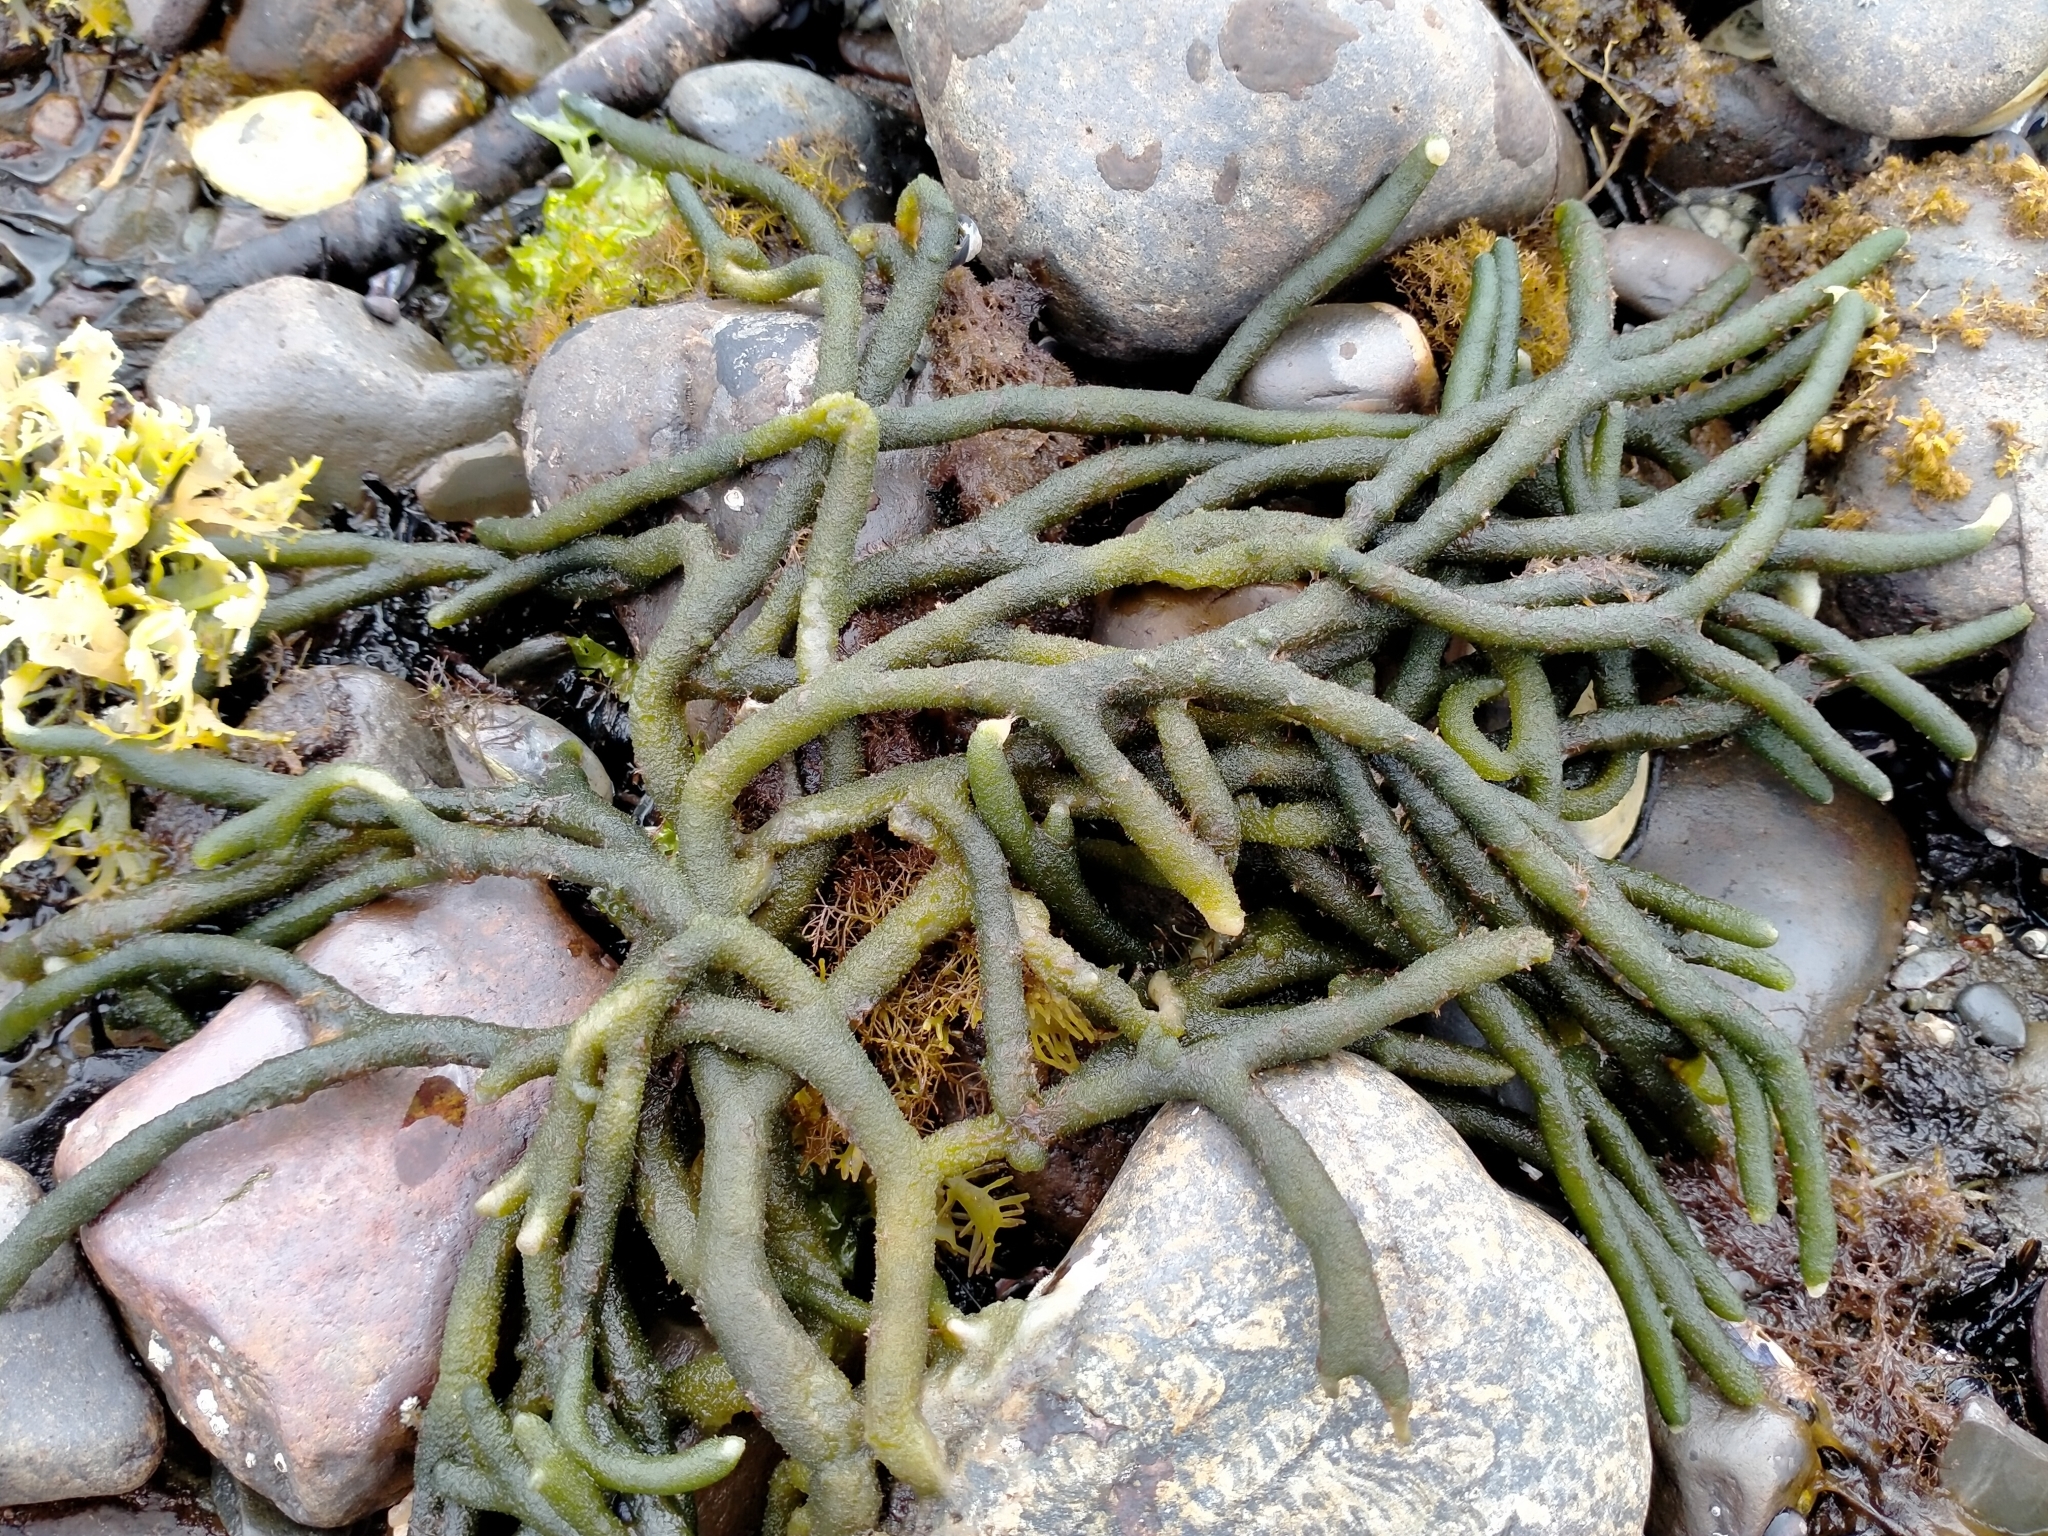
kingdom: Plantae
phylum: Chlorophyta
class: Ulvophyceae
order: Bryopsidales
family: Codiaceae
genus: Codium
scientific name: Codium fragile
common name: Dead man's fingers
